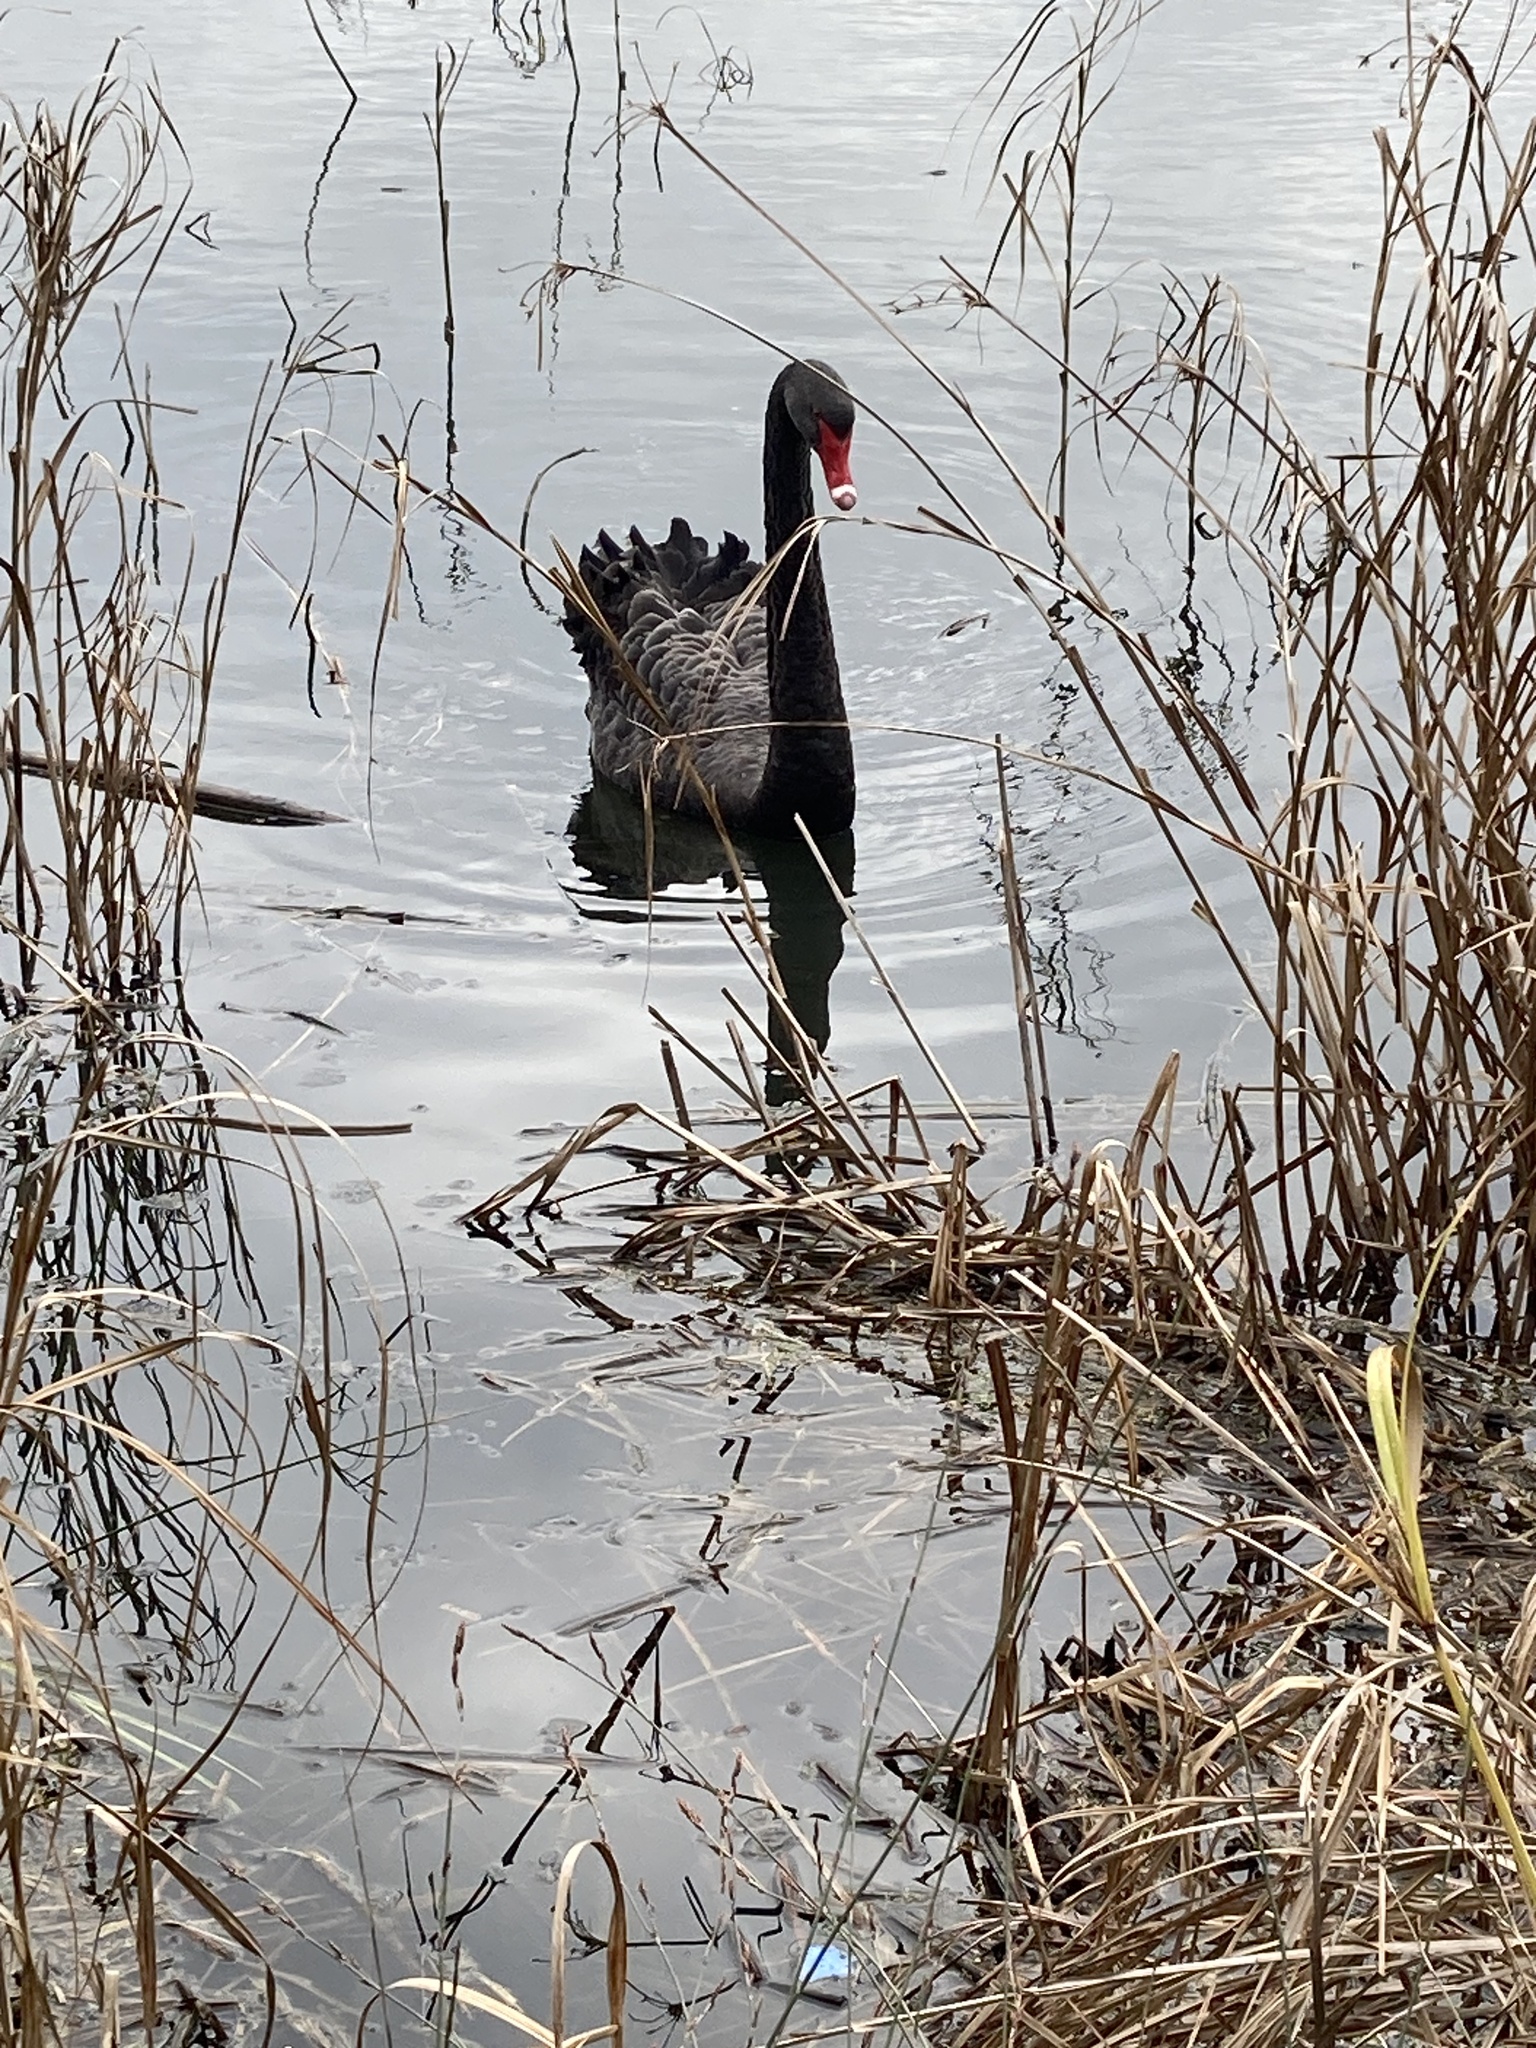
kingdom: Animalia
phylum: Chordata
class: Aves
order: Anseriformes
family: Anatidae
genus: Cygnus
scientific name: Cygnus atratus
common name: Black swan
